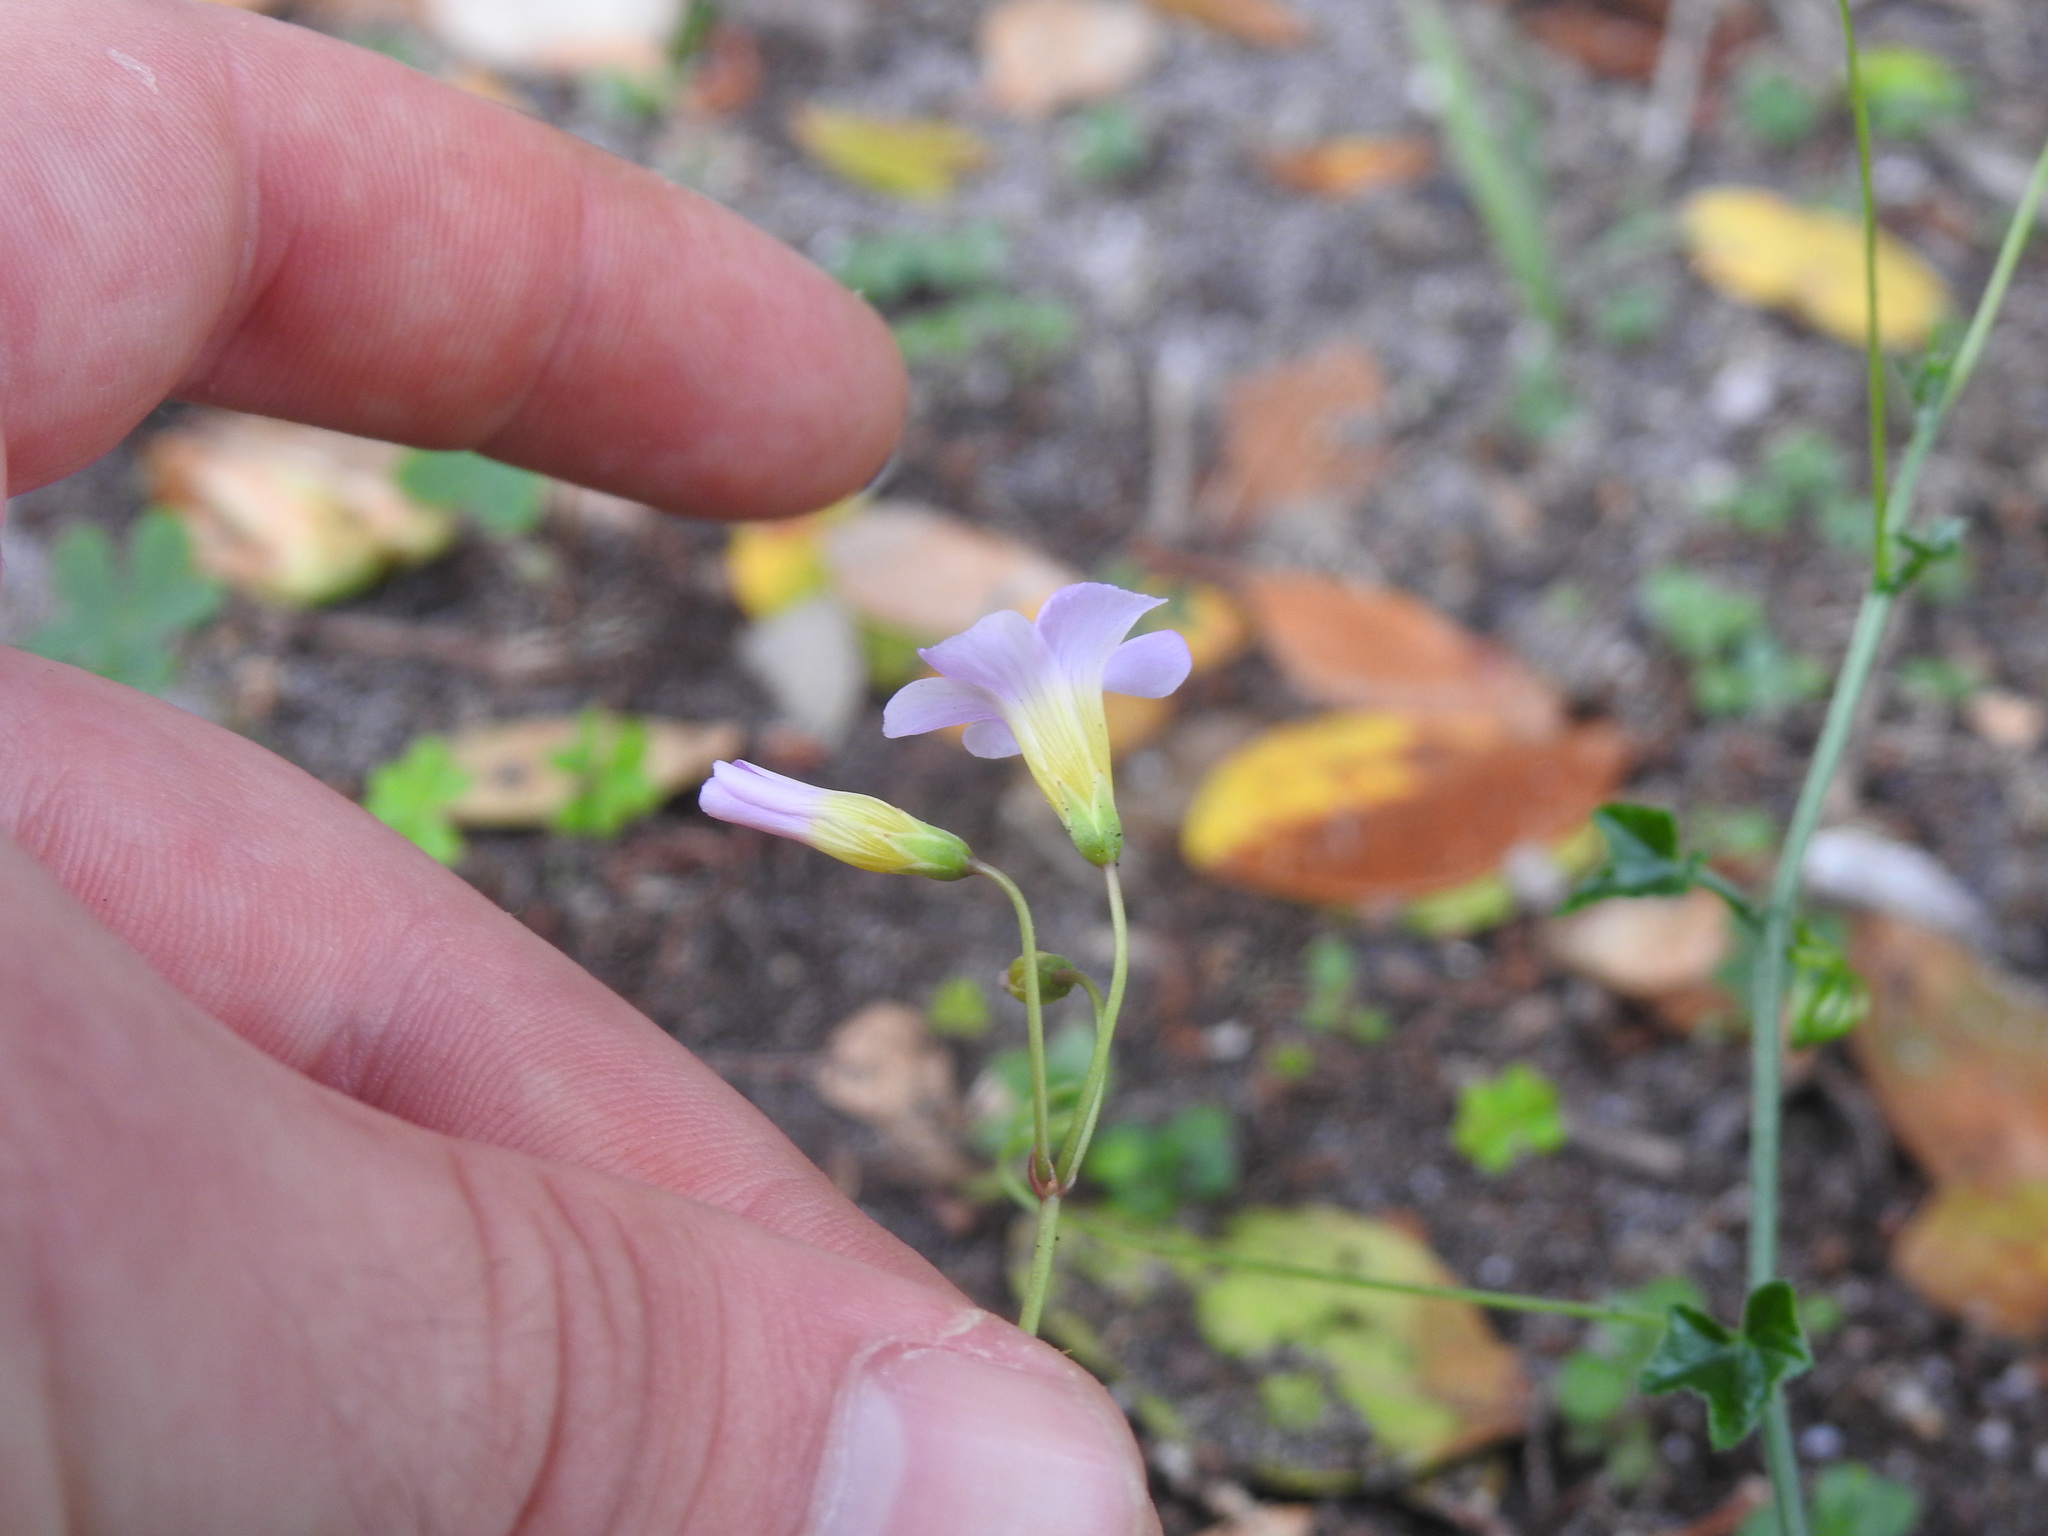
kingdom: Plantae
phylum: Tracheophyta
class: Magnoliopsida
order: Oxalidales
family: Oxalidaceae
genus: Oxalis
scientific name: Oxalis caprina
